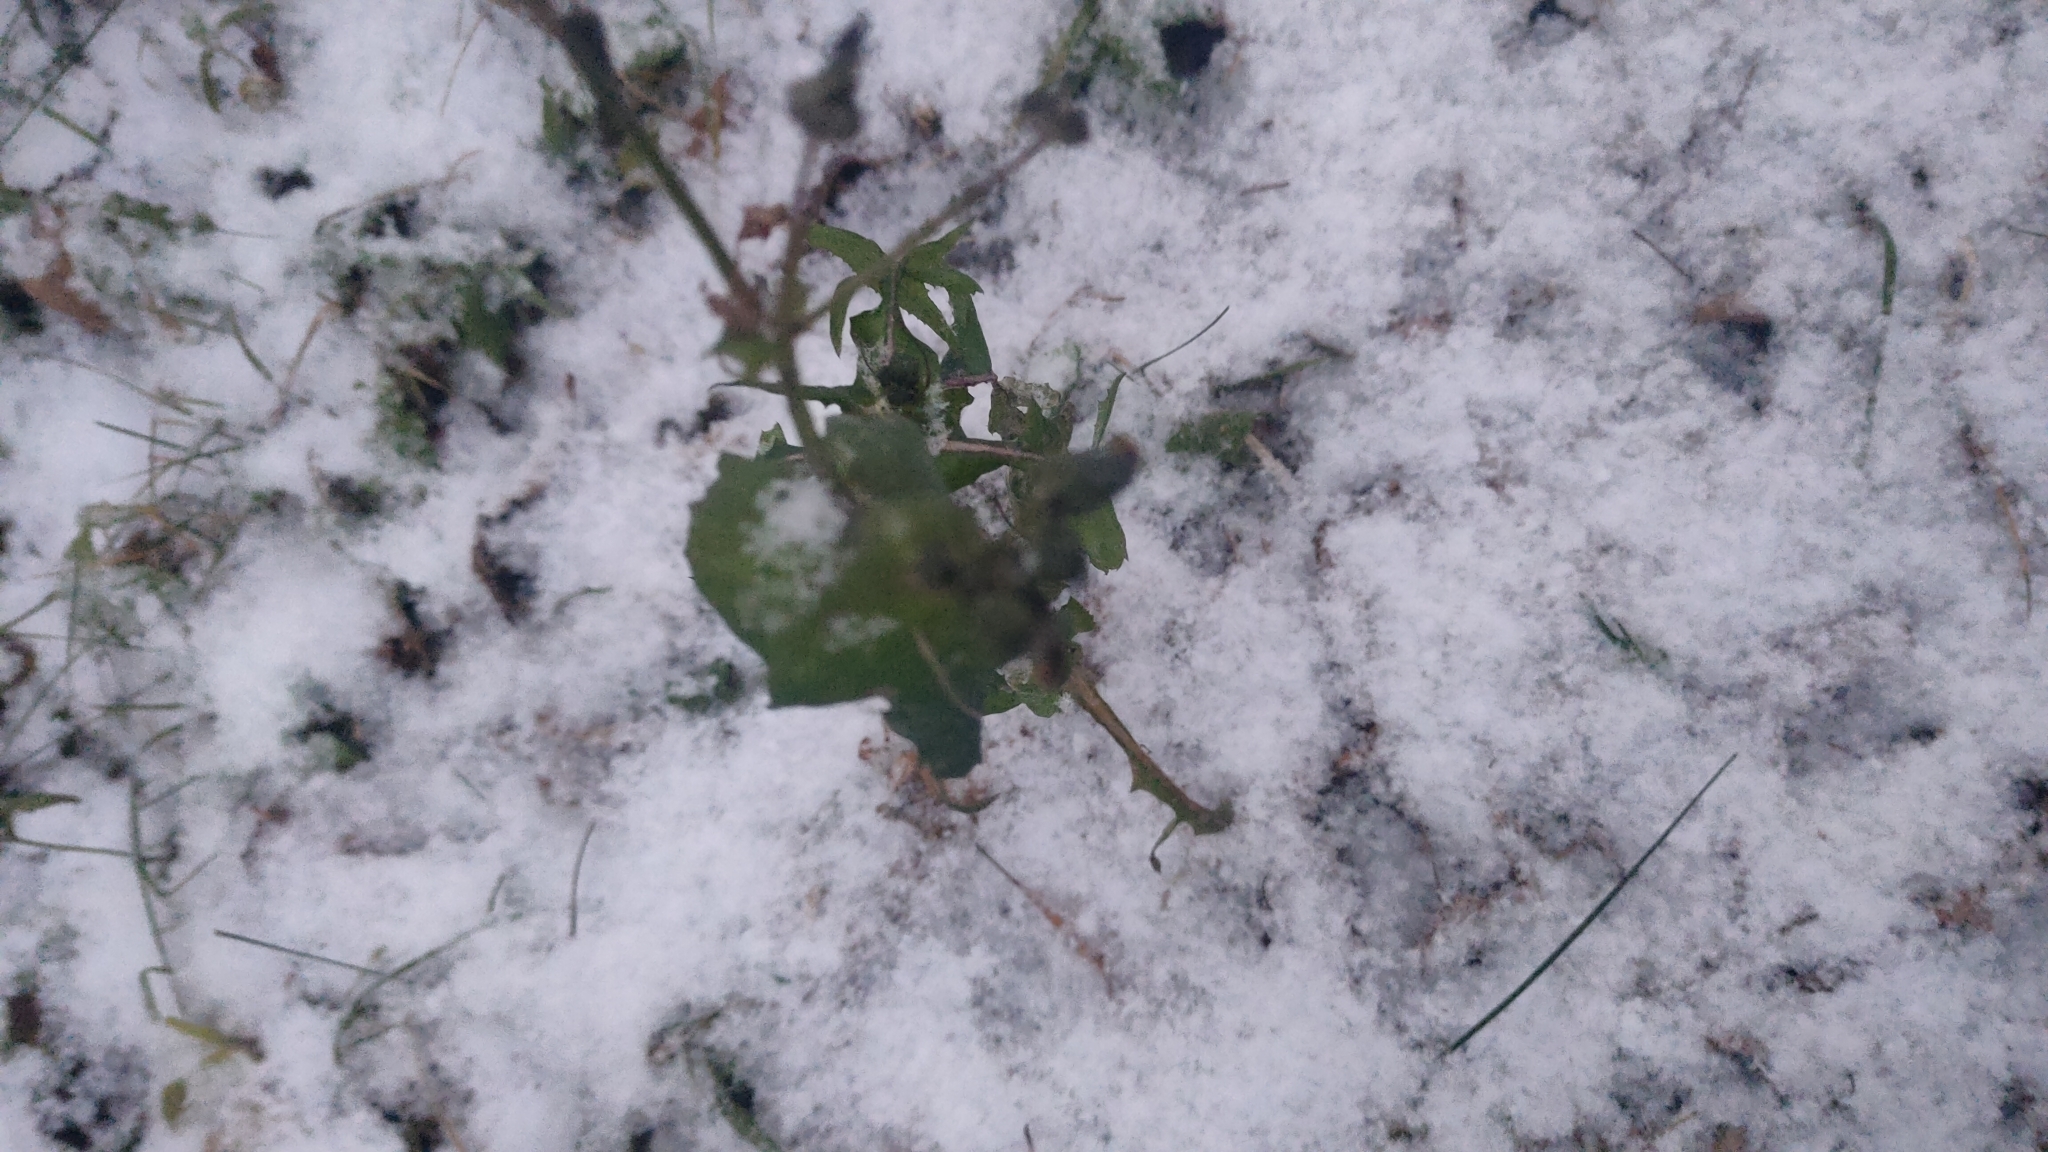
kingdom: Plantae
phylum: Tracheophyta
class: Magnoliopsida
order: Asterales
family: Asteraceae
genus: Sonchus
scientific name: Sonchus oleraceus
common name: Common sowthistle
